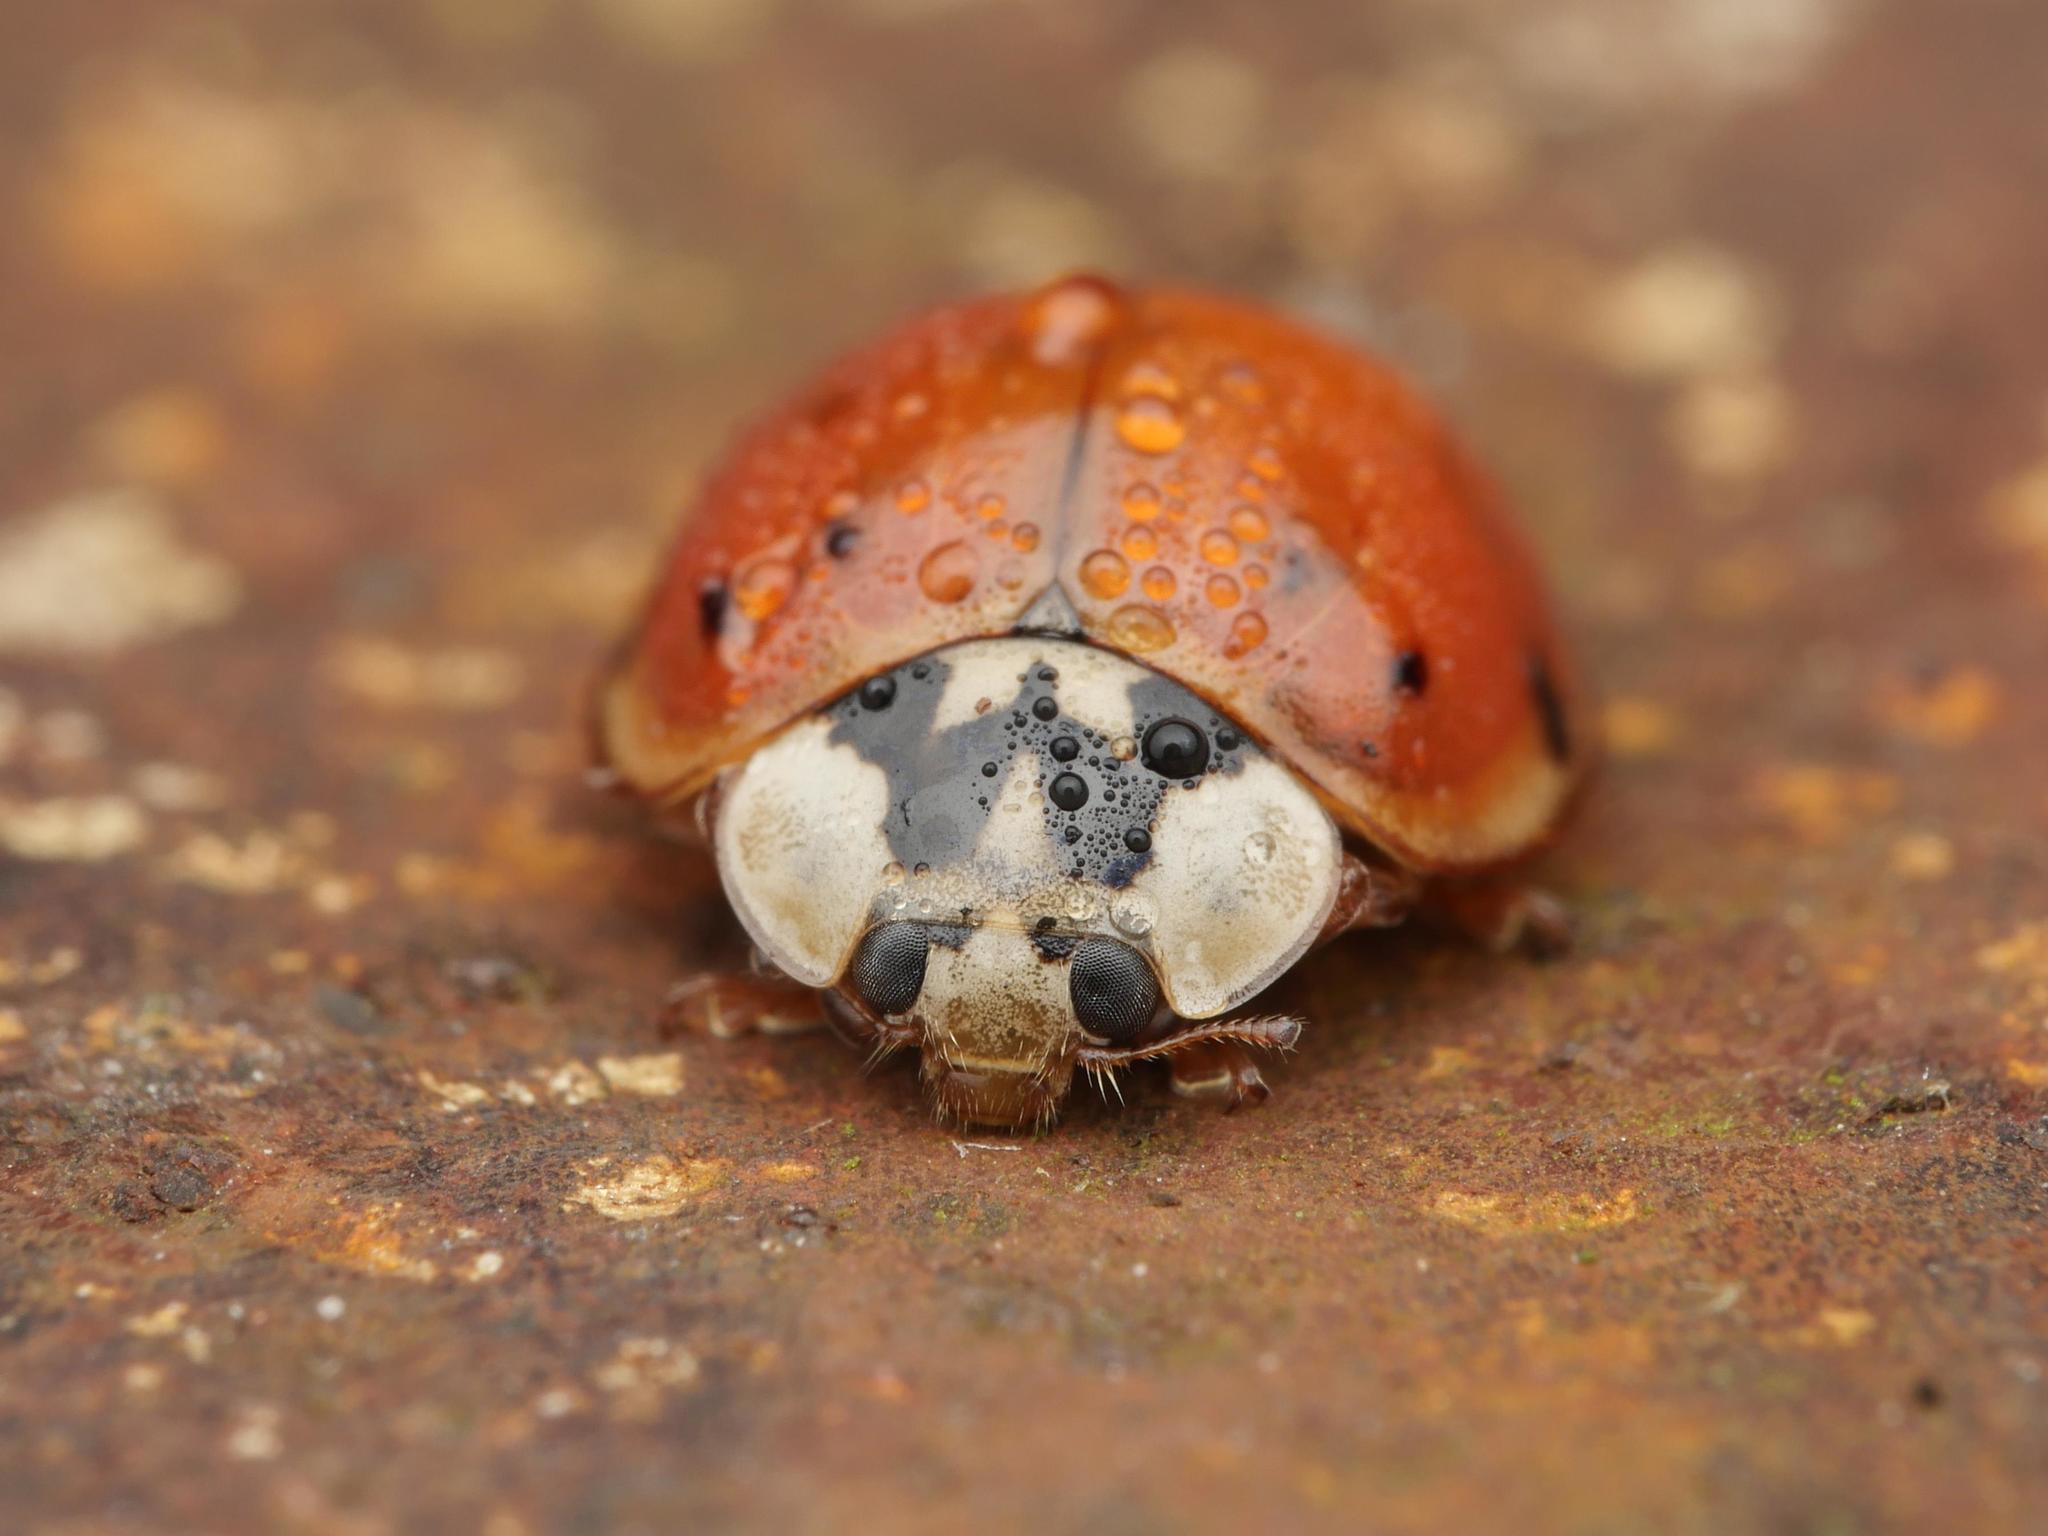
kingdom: Animalia
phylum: Arthropoda
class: Insecta
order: Coleoptera
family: Coccinellidae
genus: Harmonia
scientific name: Harmonia axyridis
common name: Harlequin ladybird
